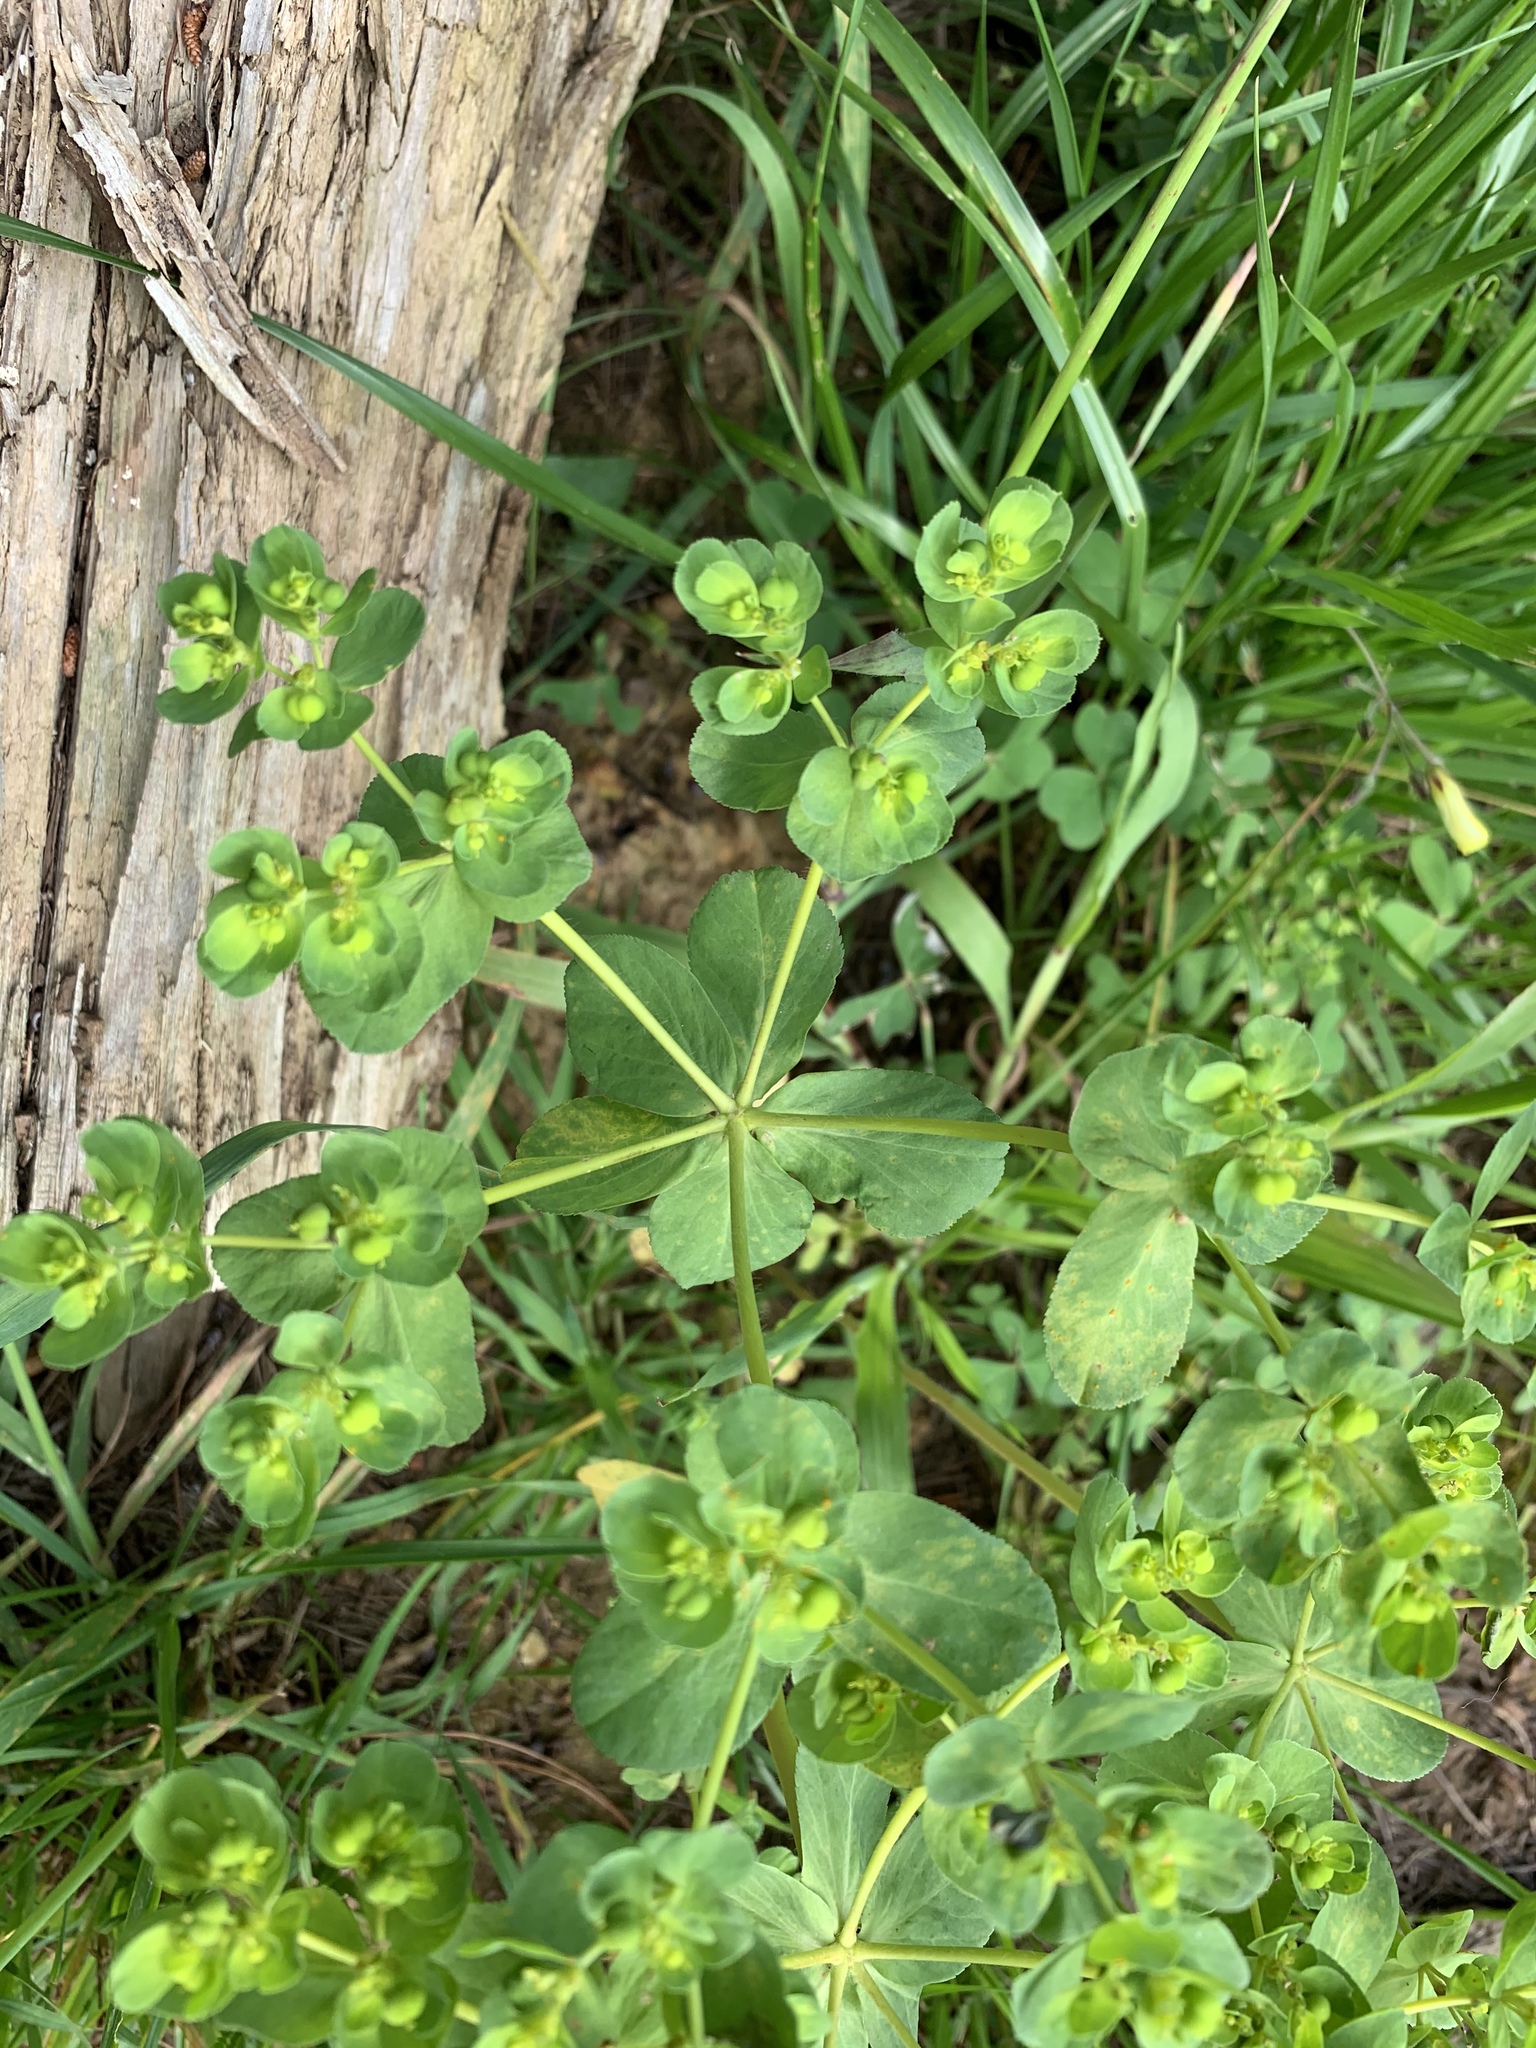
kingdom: Plantae
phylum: Tracheophyta
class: Magnoliopsida
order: Malpighiales
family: Euphorbiaceae
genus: Euphorbia
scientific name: Euphorbia helioscopia
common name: Sun spurge
